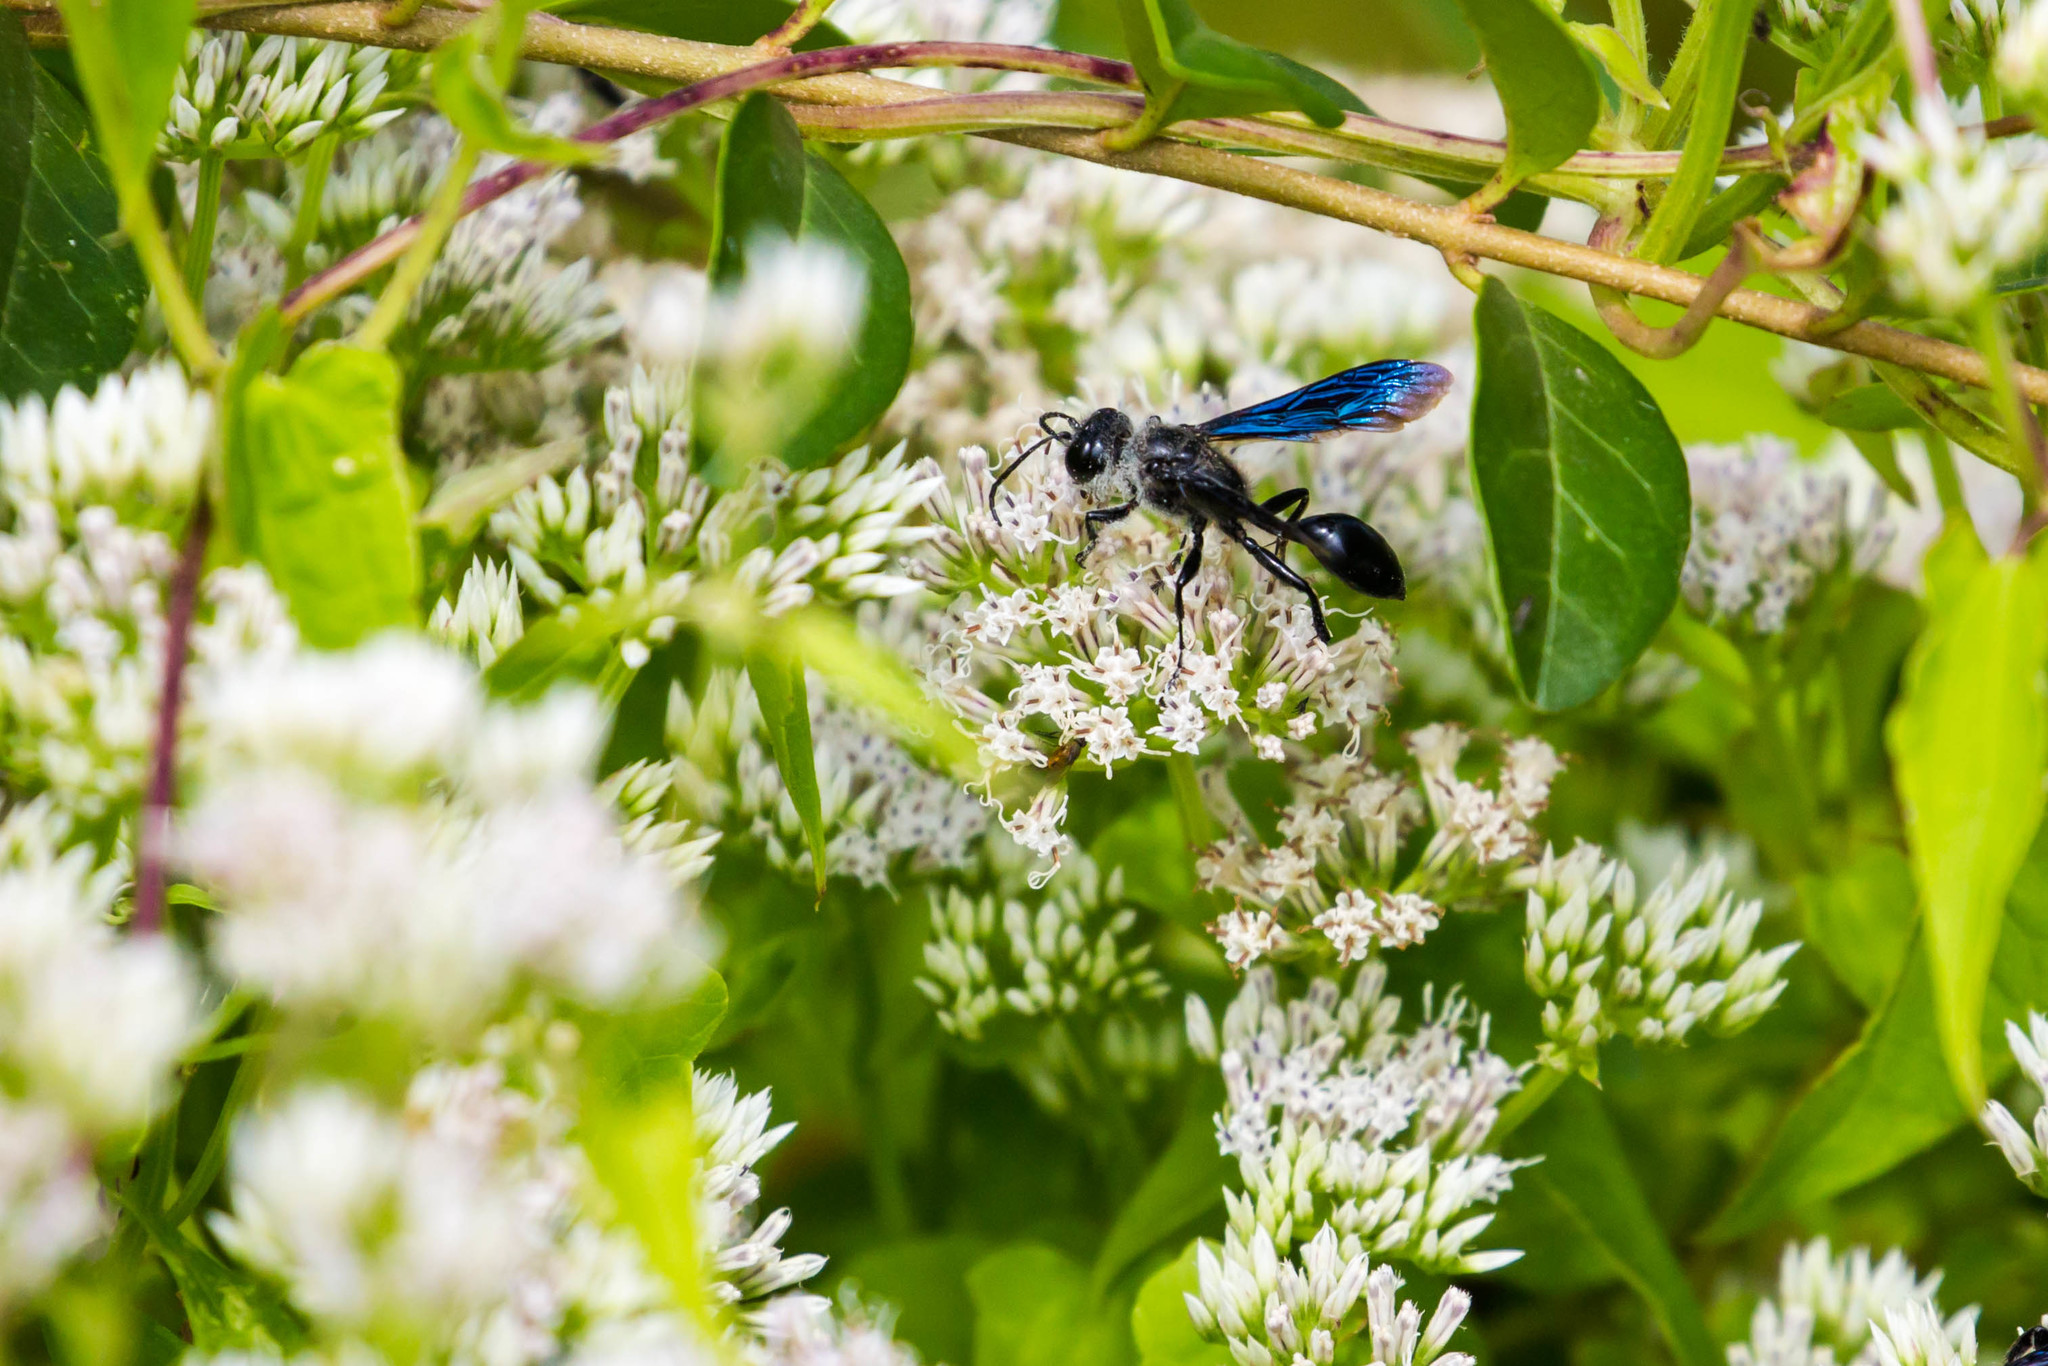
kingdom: Animalia
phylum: Arthropoda
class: Insecta
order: Hymenoptera
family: Sphecidae
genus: Isodontia
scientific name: Isodontia philadelphica
